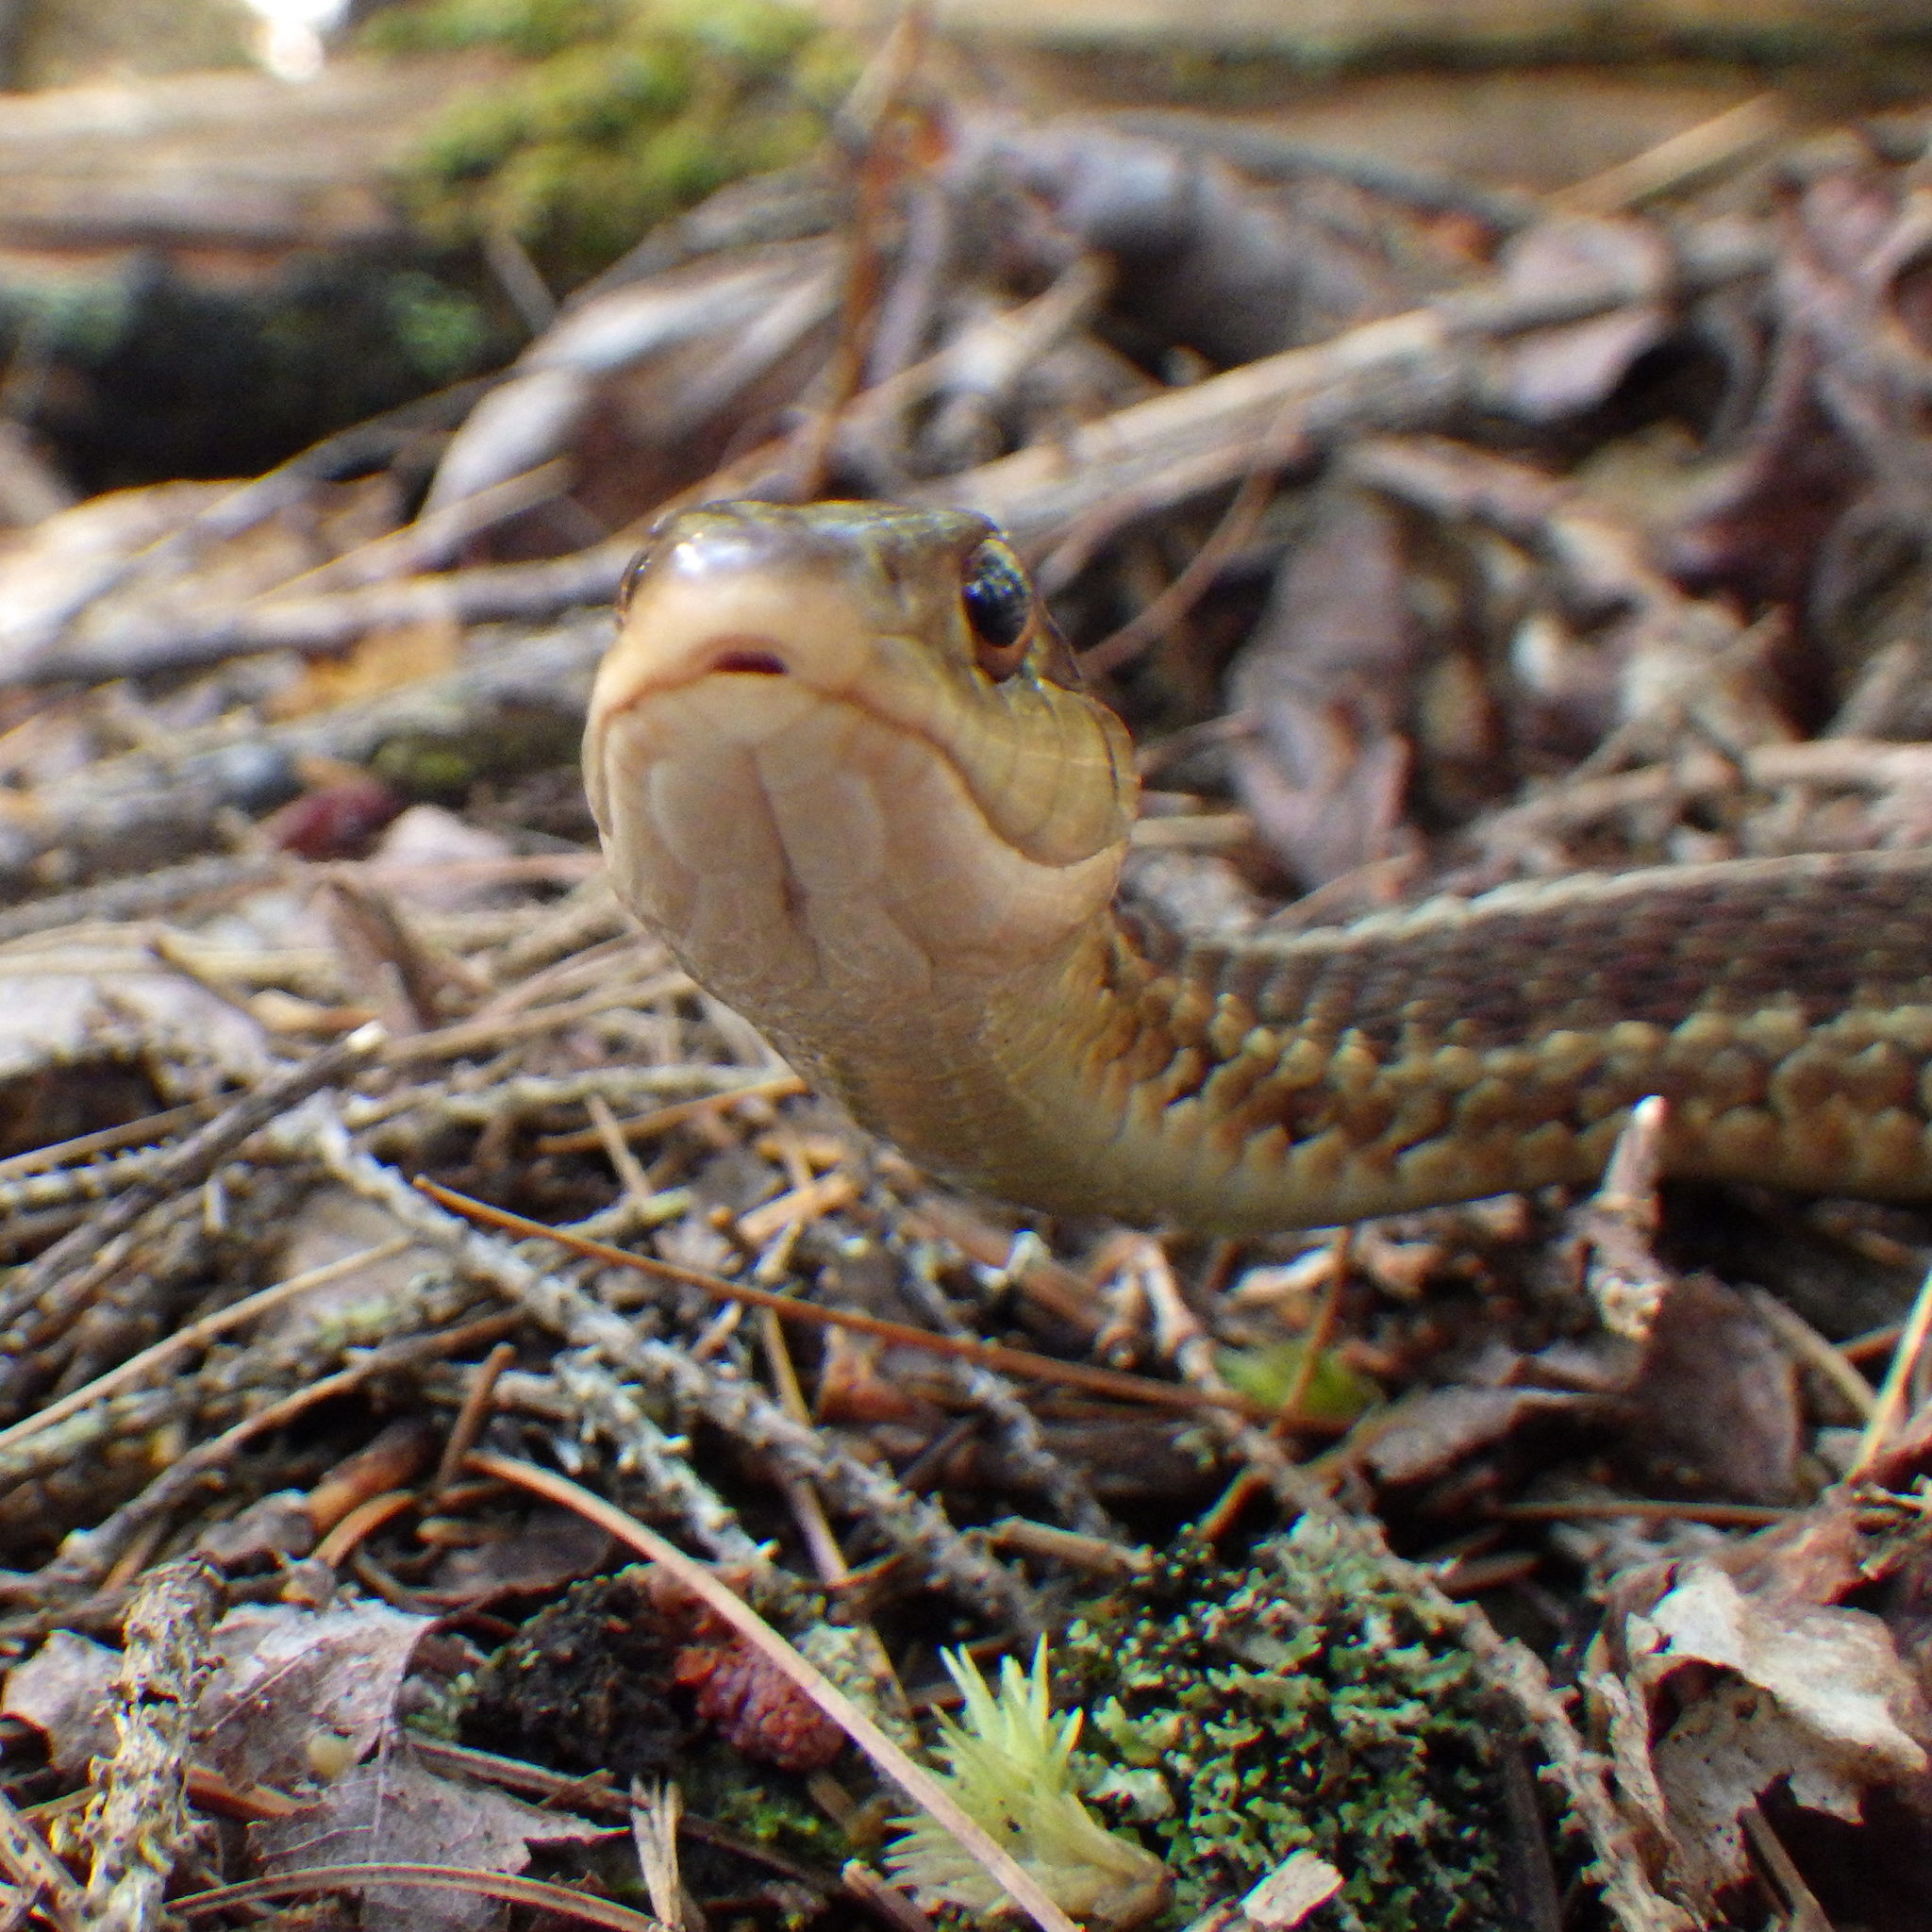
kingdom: Animalia
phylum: Chordata
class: Squamata
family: Colubridae
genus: Thamnophis
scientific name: Thamnophis sirtalis
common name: Common garter snake
